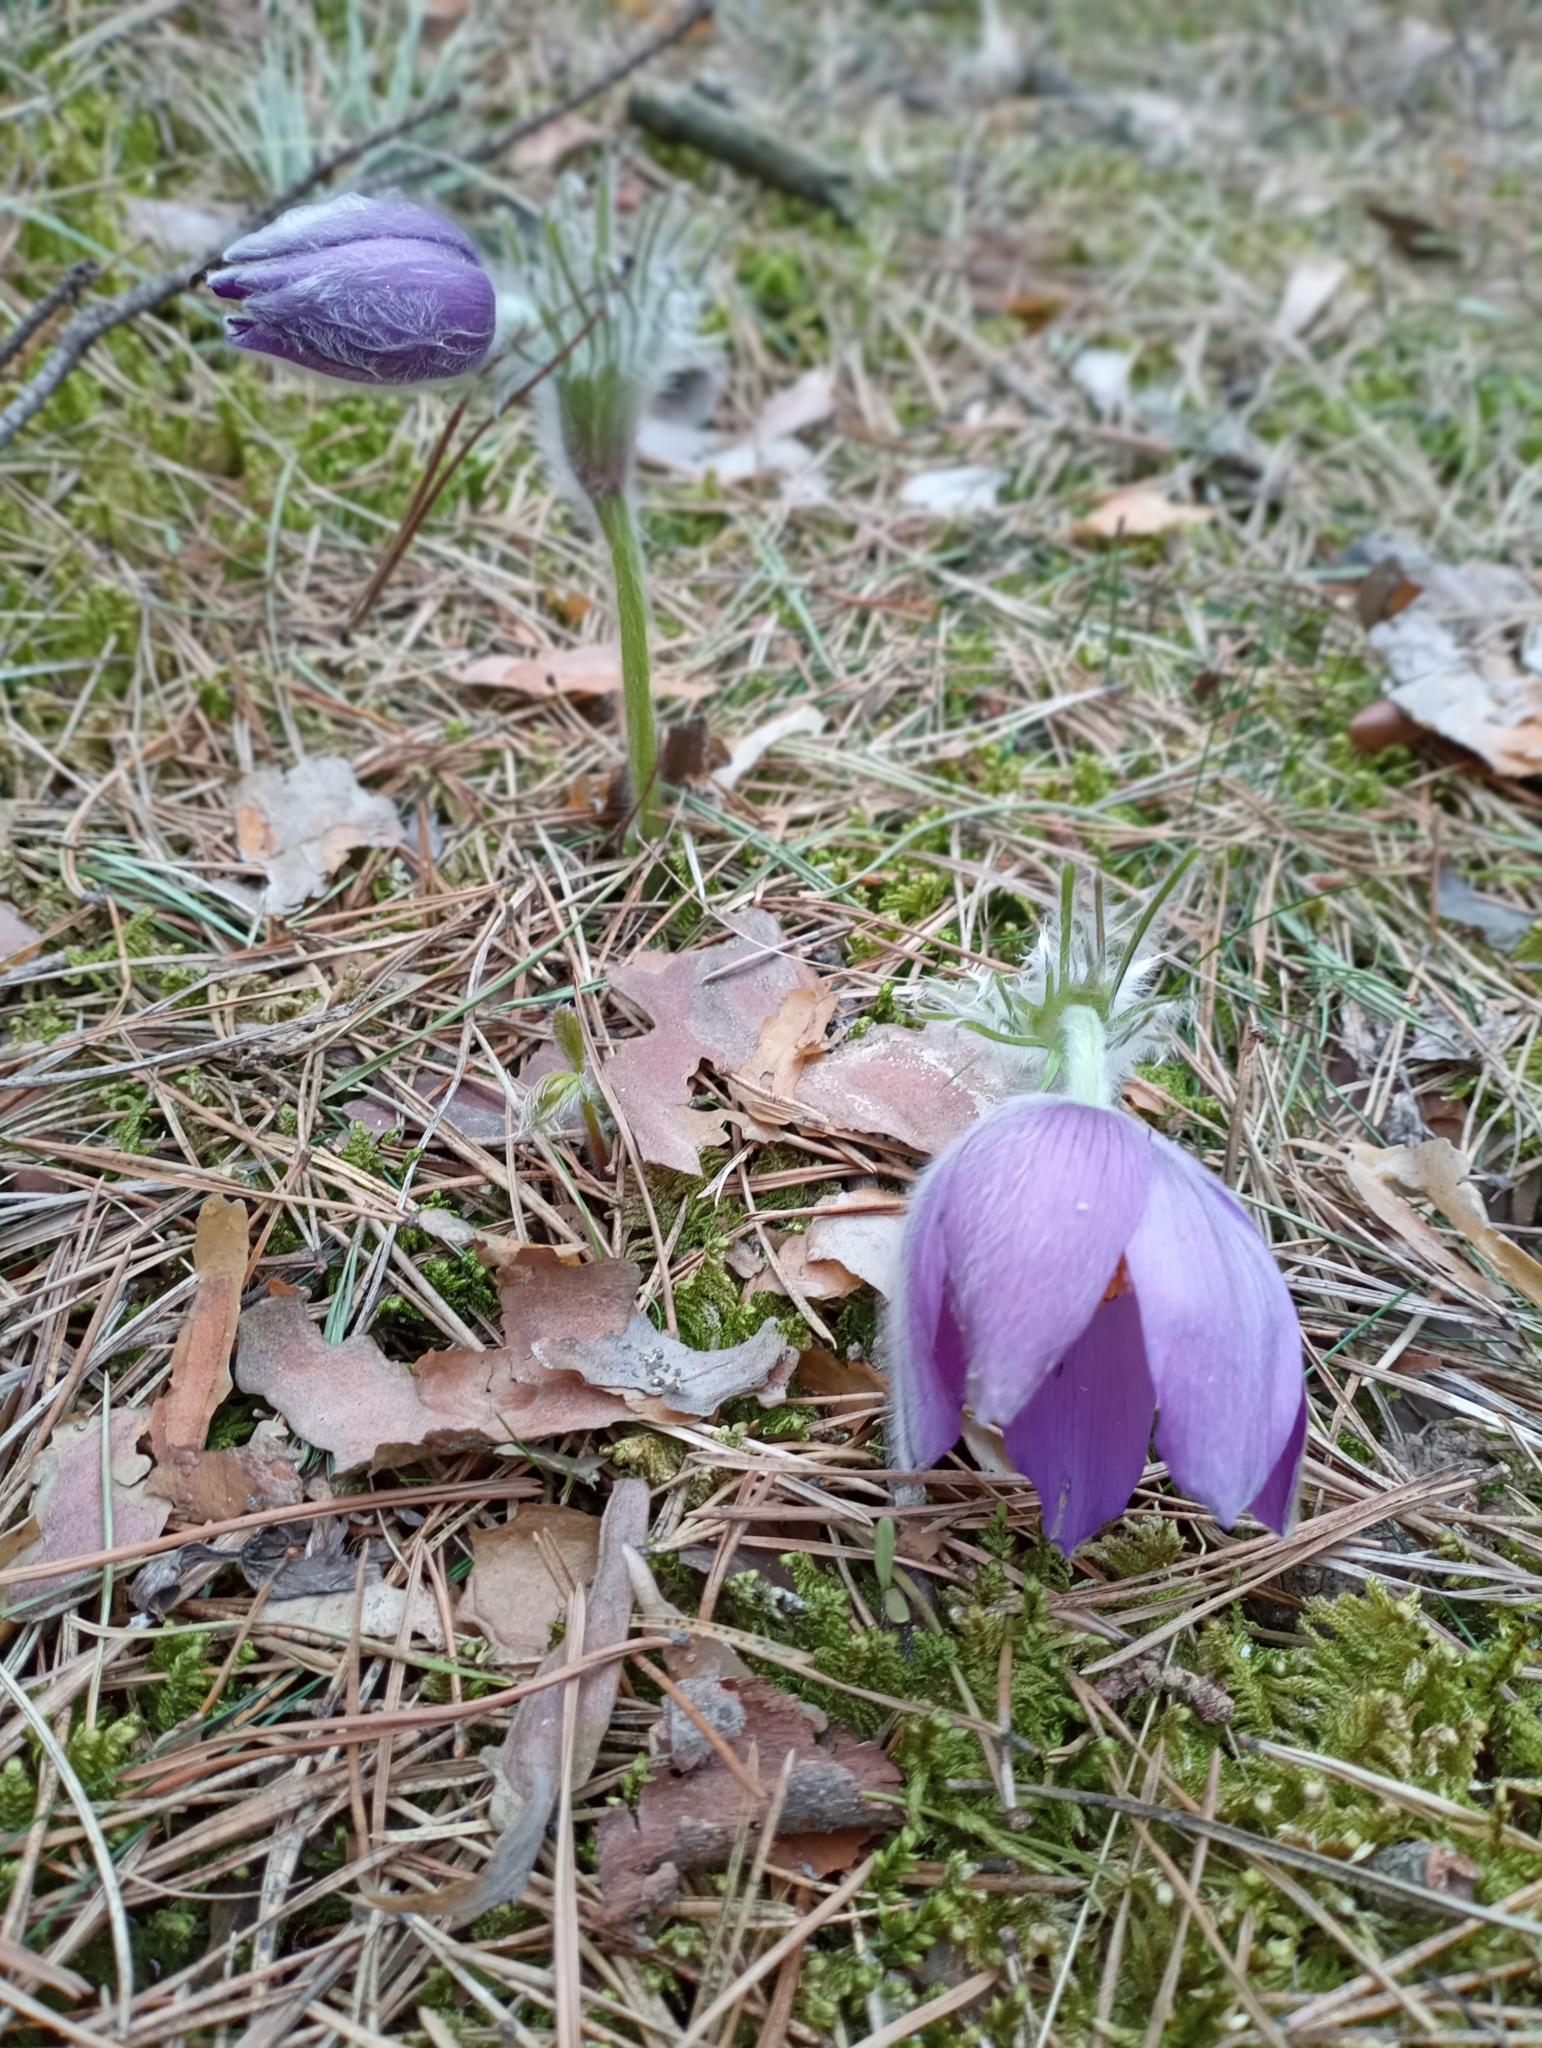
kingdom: Plantae
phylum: Tracheophyta
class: Magnoliopsida
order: Ranunculales
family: Ranunculaceae
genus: Pulsatilla
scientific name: Pulsatilla patens
